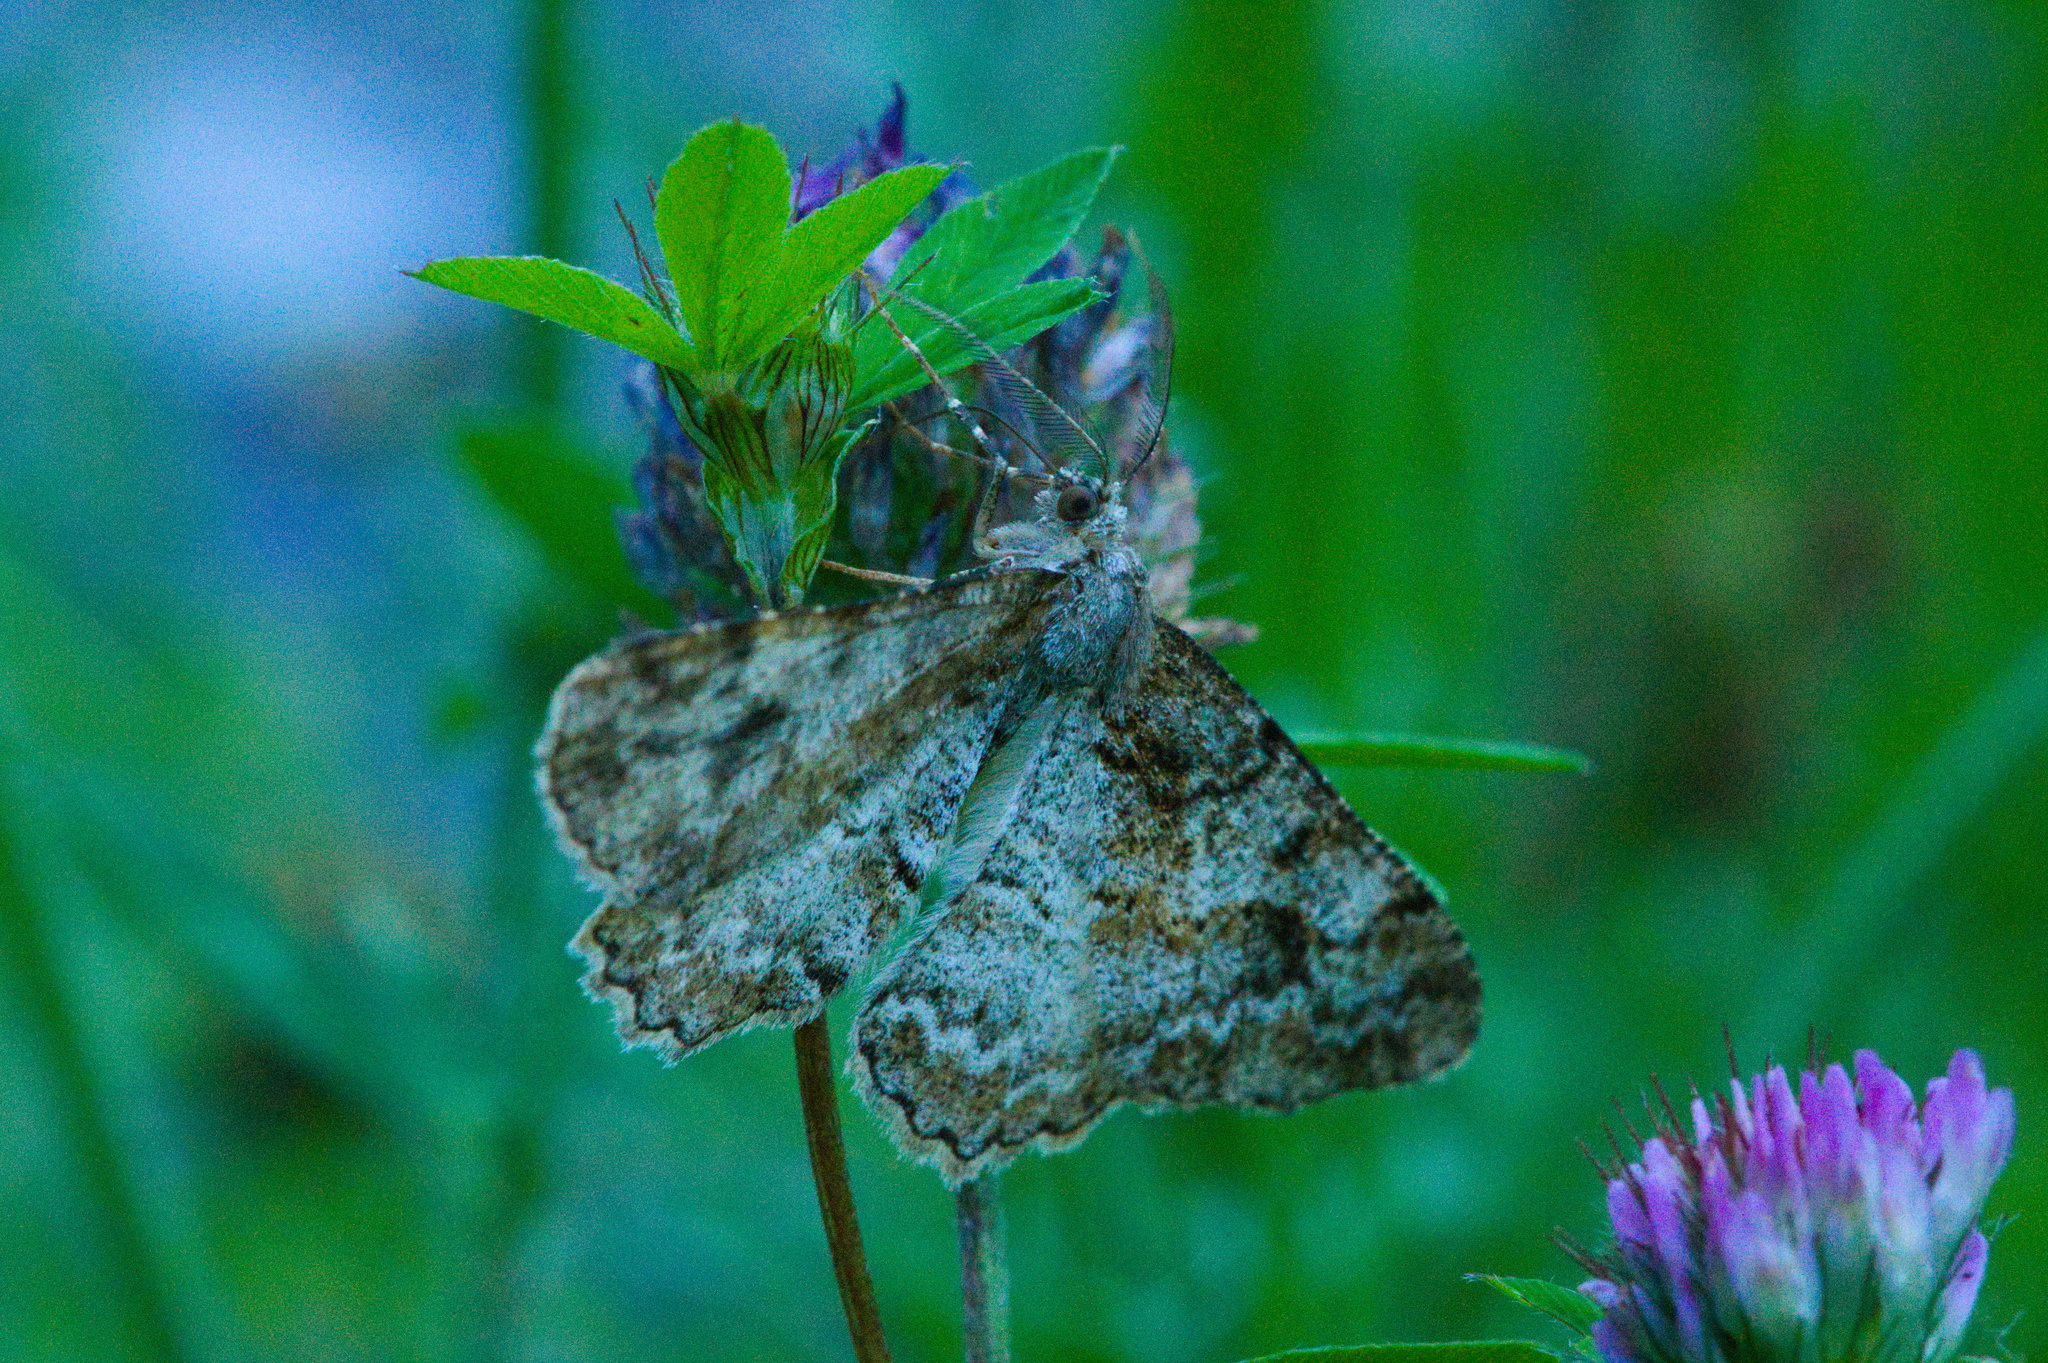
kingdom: Animalia
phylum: Arthropoda
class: Insecta
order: Lepidoptera
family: Geometridae
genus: Alcis
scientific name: Alcis repandata
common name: Mottled beauty
